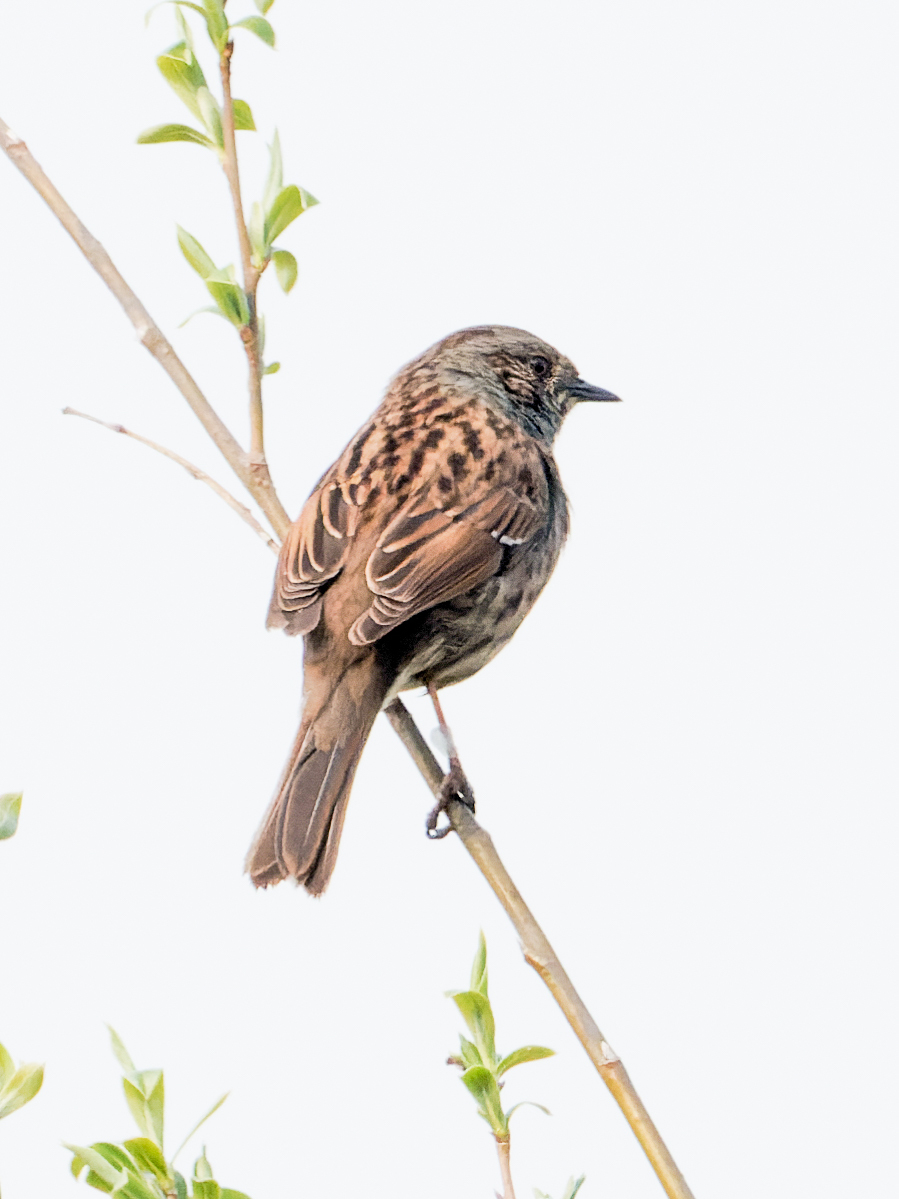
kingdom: Animalia
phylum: Chordata
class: Aves
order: Passeriformes
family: Prunellidae
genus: Prunella
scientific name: Prunella modularis
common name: Dunnock
